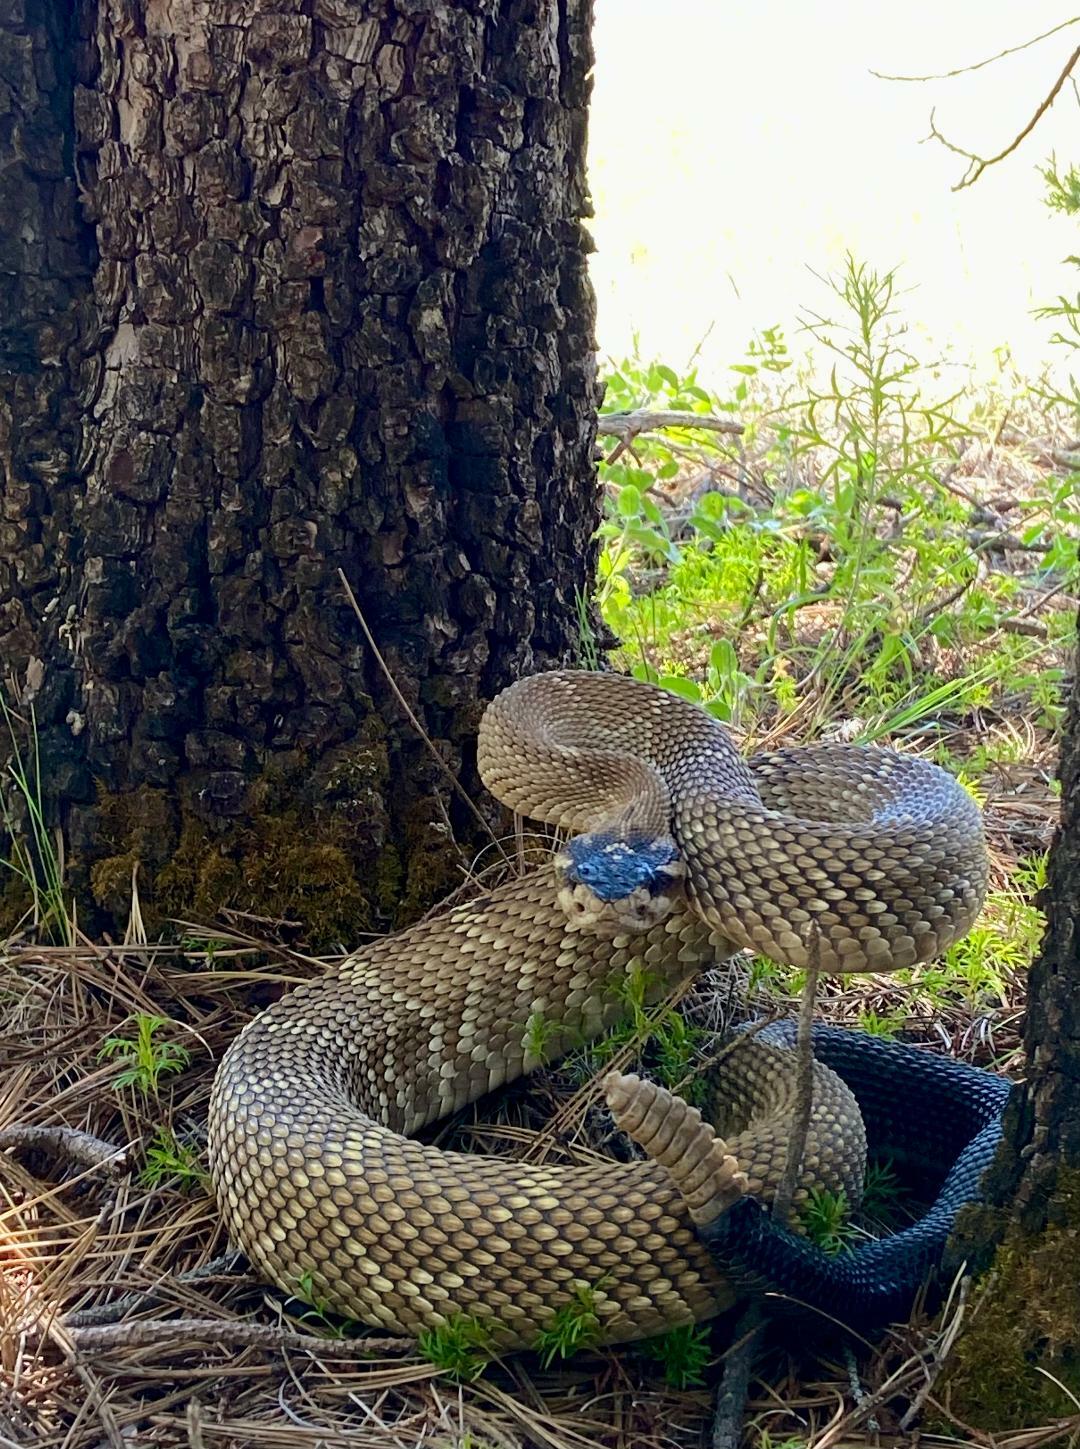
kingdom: Animalia
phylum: Chordata
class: Squamata
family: Viperidae
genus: Crotalus
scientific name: Crotalus molossus
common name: Black tailed rattlesnake
